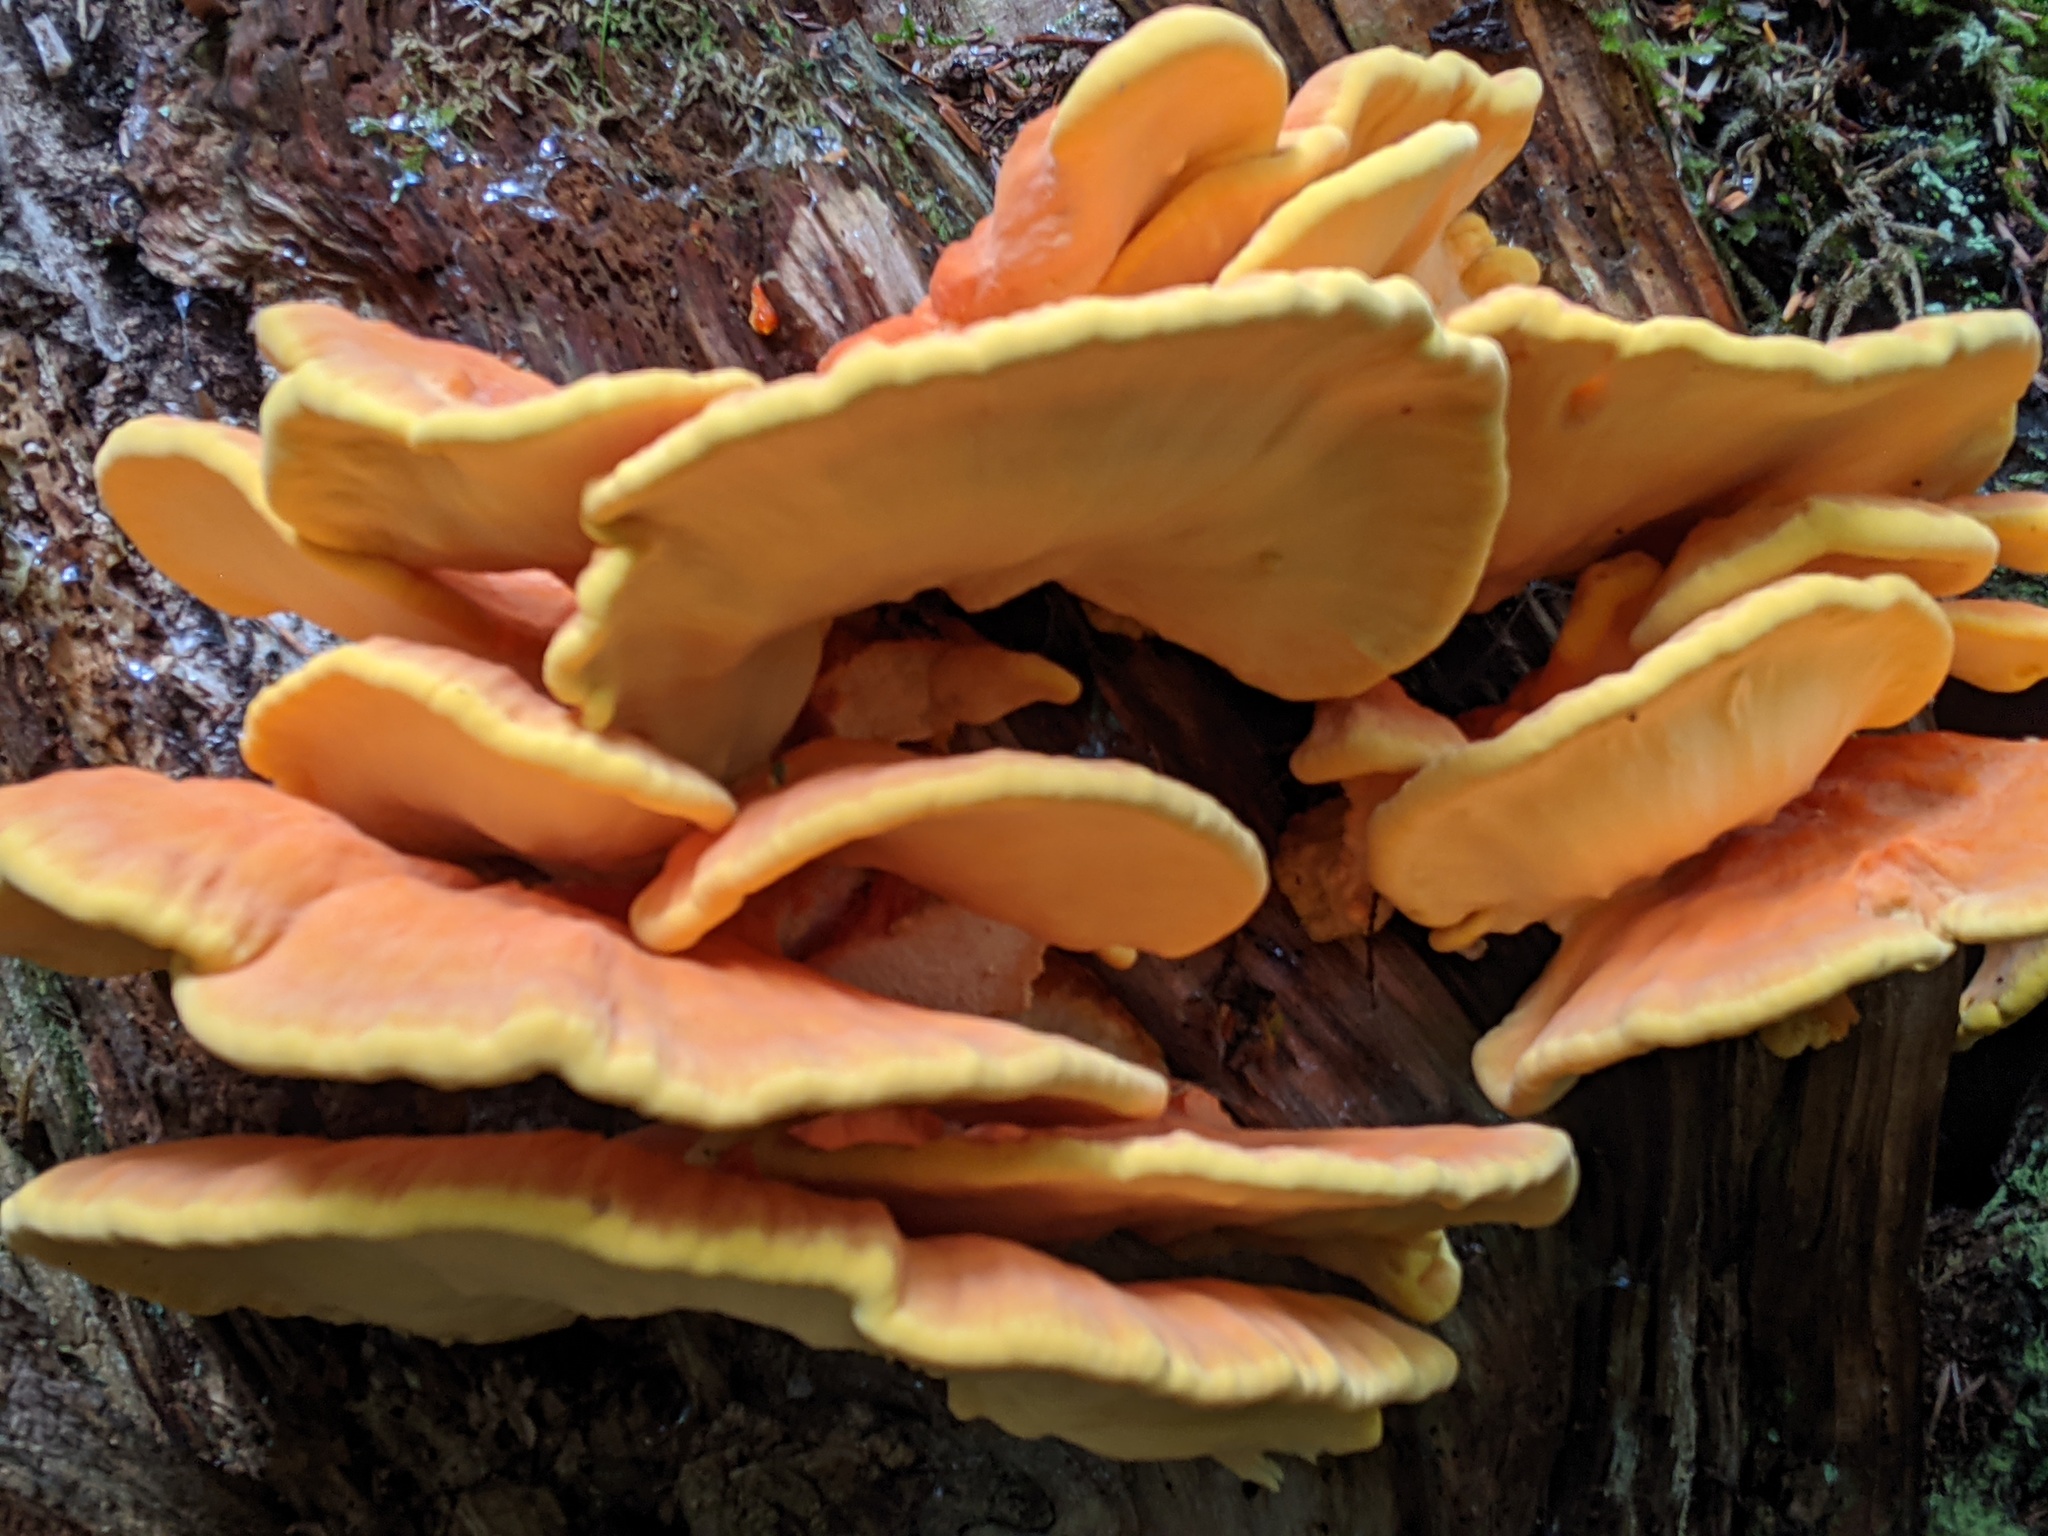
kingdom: Fungi
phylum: Basidiomycota
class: Agaricomycetes
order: Polyporales
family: Laetiporaceae
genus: Laetiporus
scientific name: Laetiporus conifericola
